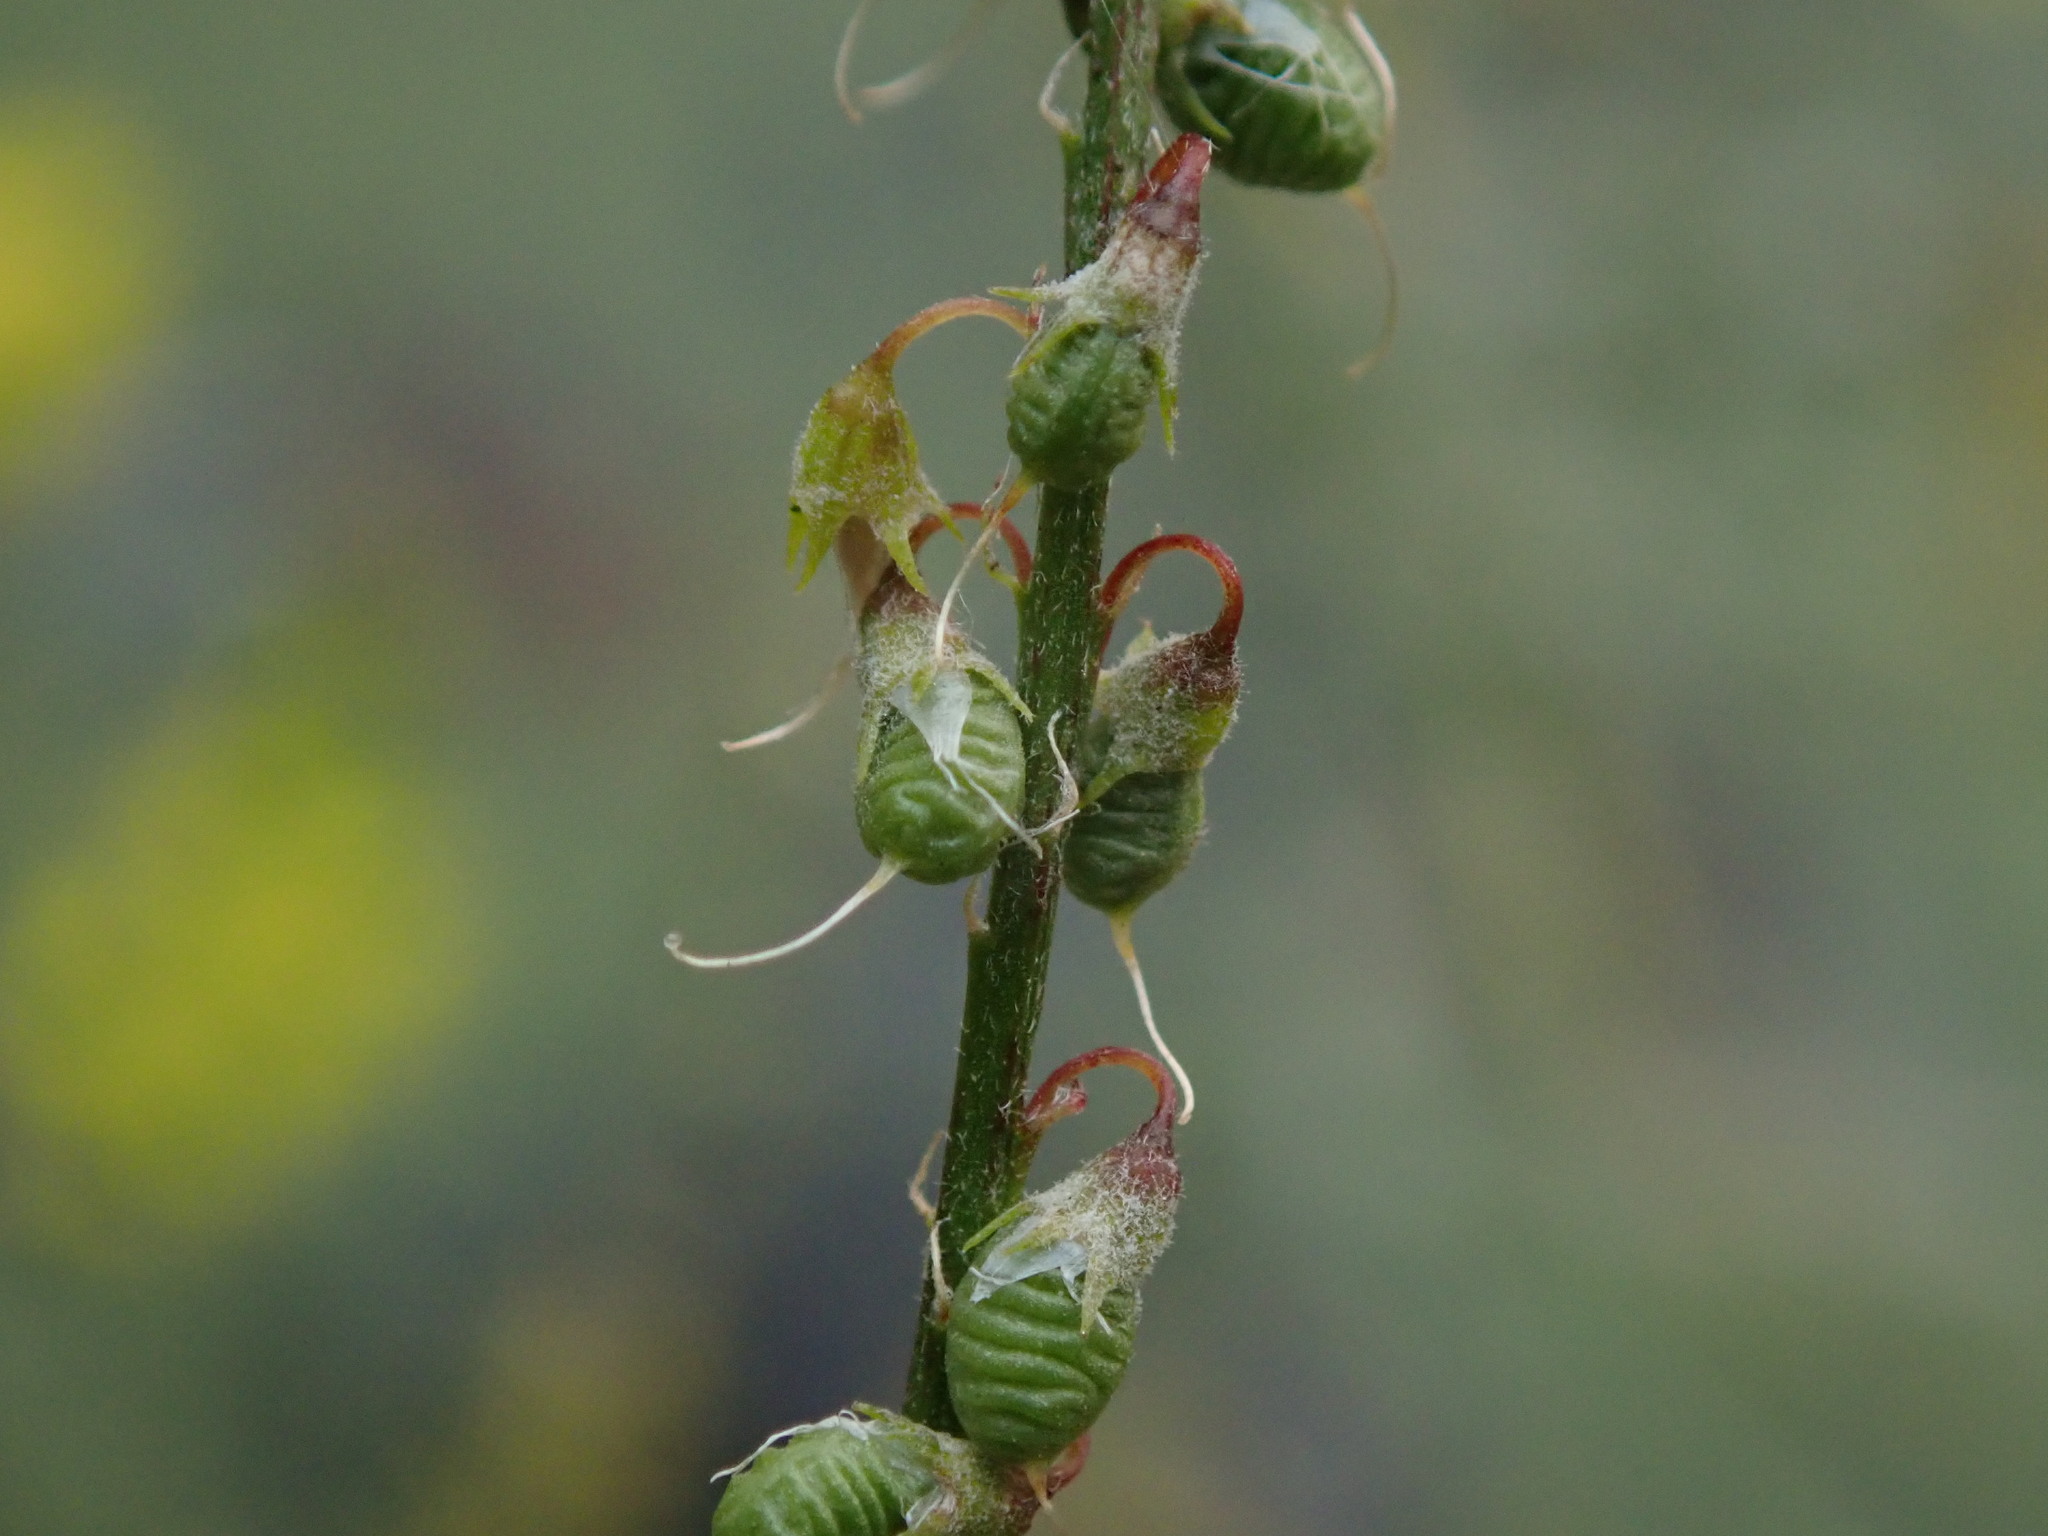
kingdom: Plantae
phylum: Tracheophyta
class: Magnoliopsida
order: Fabales
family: Fabaceae
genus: Melilotus
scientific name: Melilotus officinalis
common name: Sweetclover
